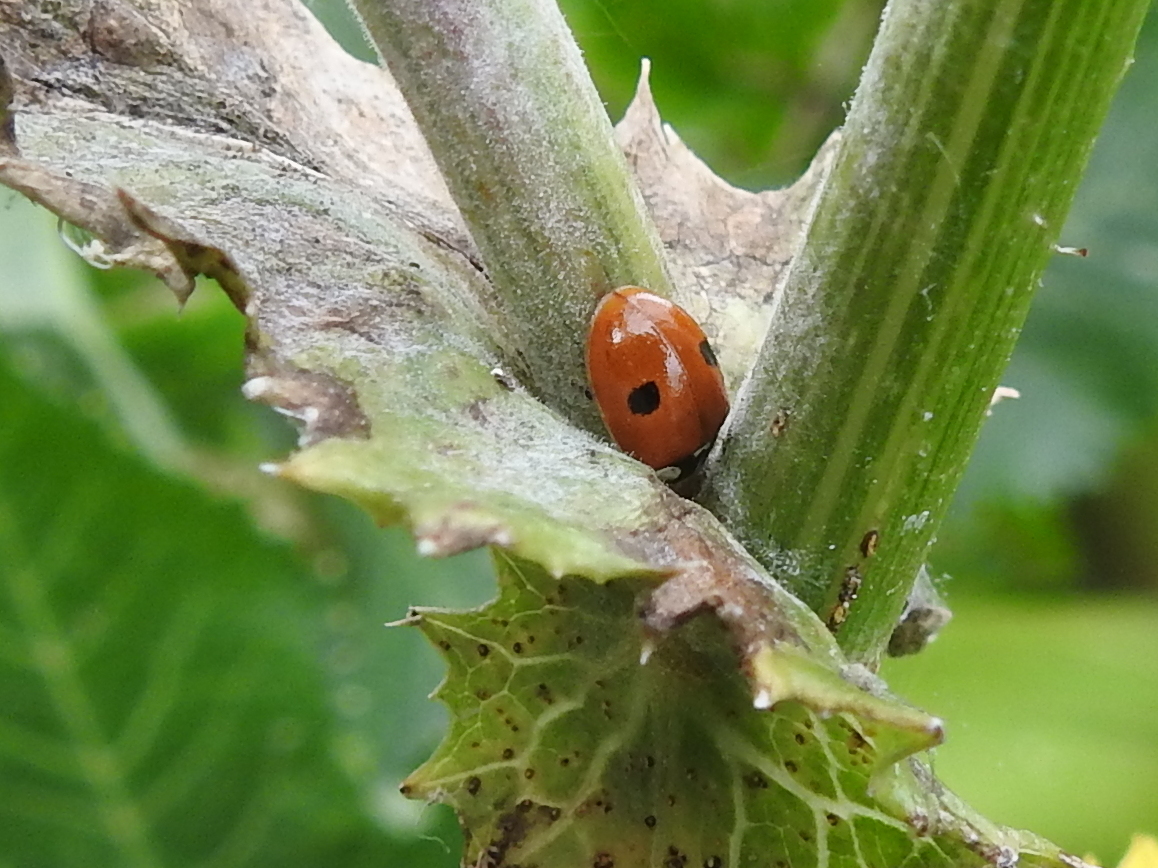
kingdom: Animalia
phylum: Arthropoda
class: Insecta
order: Coleoptera
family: Coccinellidae
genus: Adalia
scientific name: Adalia bipunctata
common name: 2-spot ladybird
